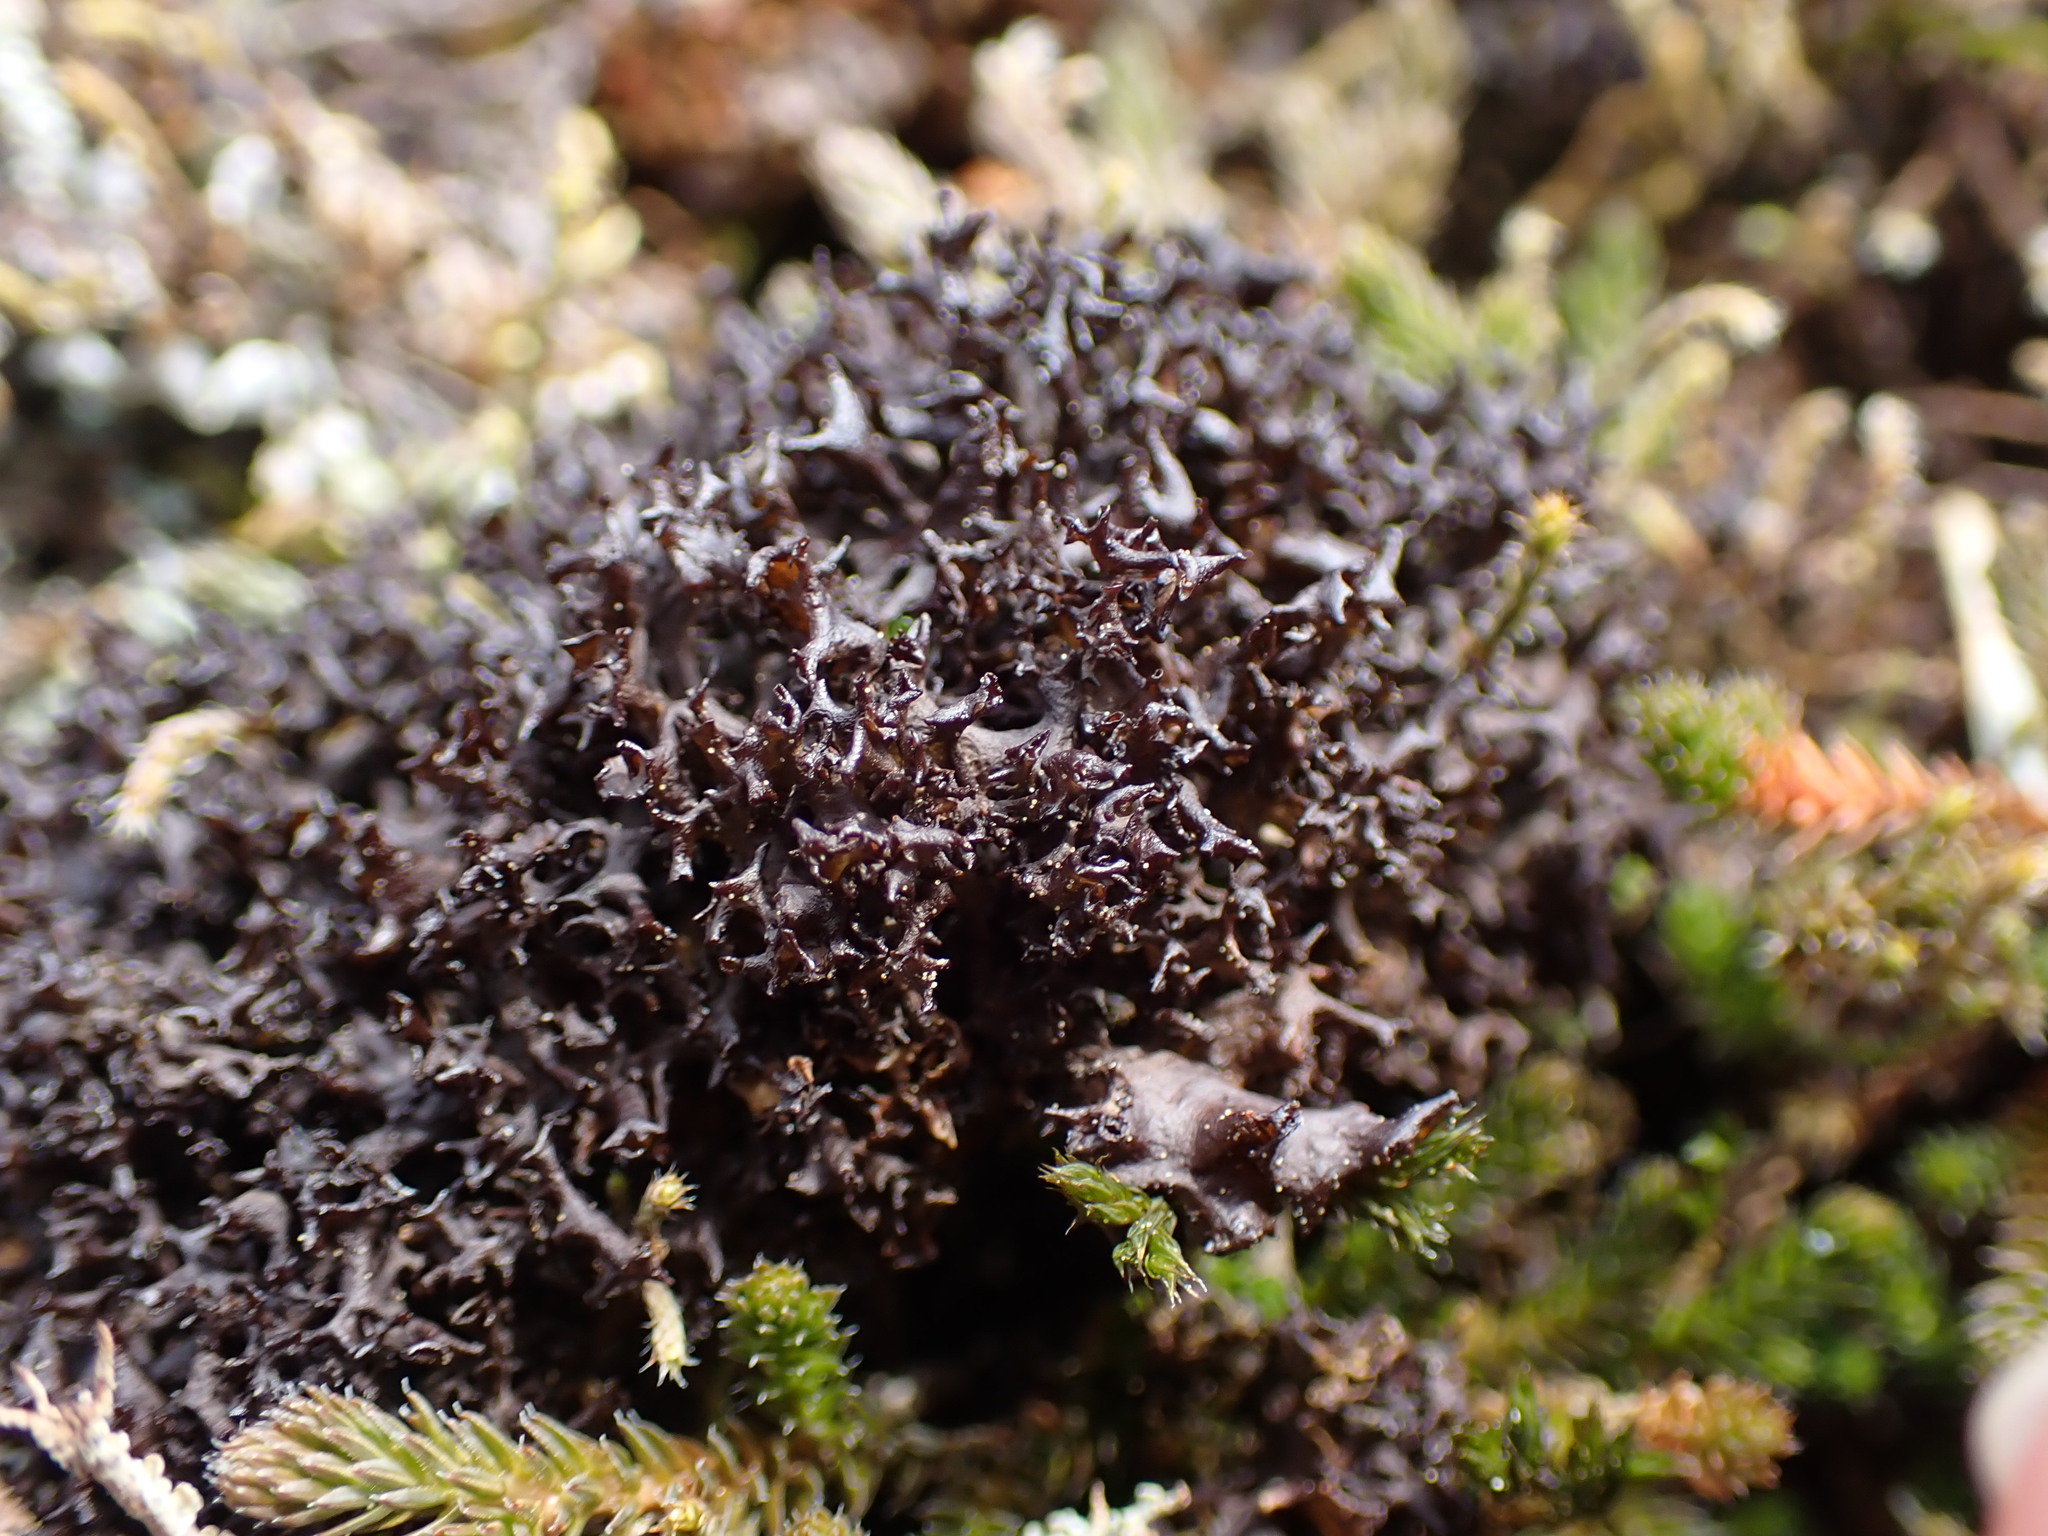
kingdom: Fungi
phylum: Ascomycota
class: Lecanoromycetes
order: Peltigerales
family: Collemataceae
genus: Scytinium
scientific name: Scytinium palmatum
